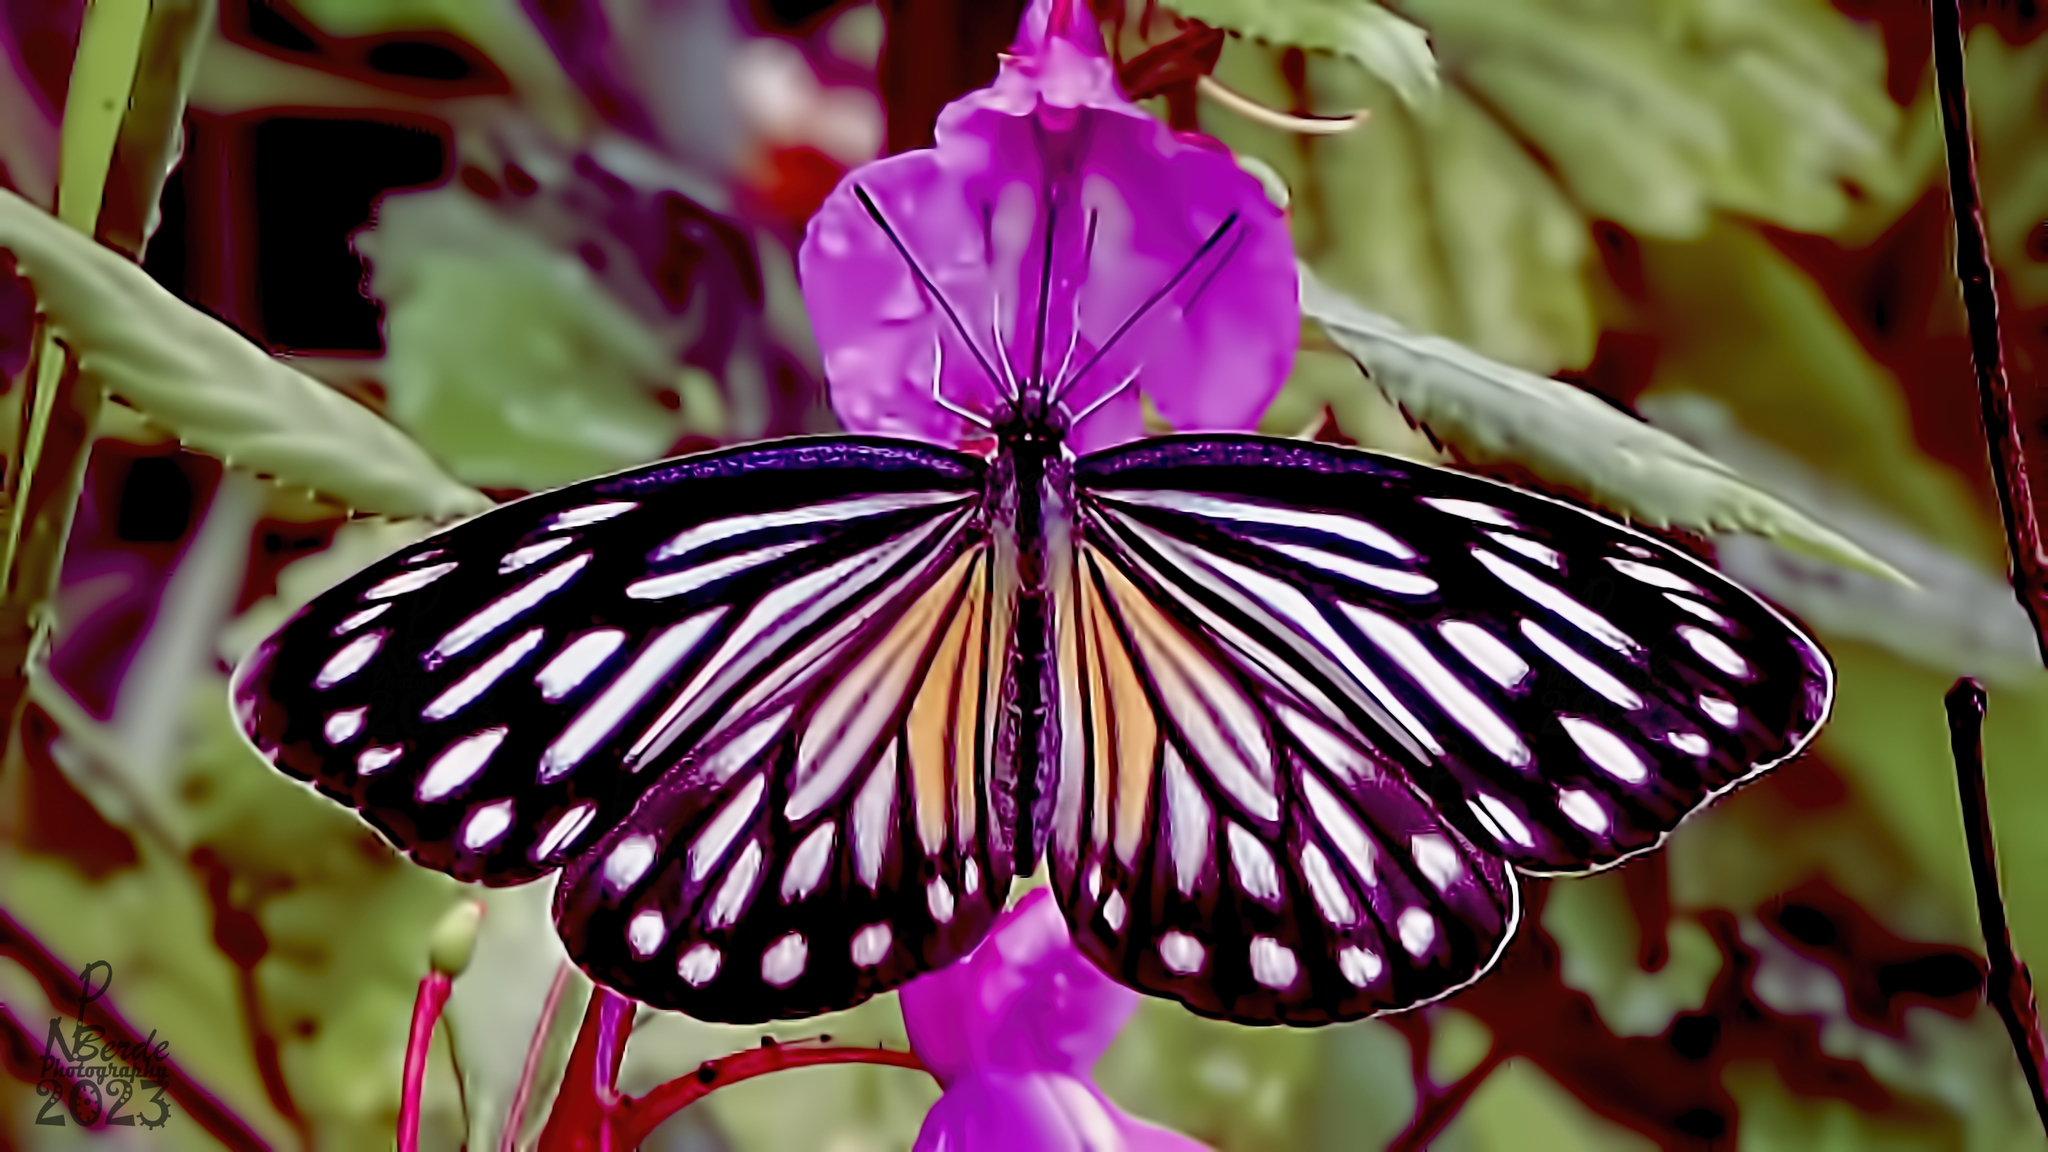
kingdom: Animalia
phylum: Arthropoda
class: Insecta
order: Lepidoptera
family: Pieridae
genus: Pareronia
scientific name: Pareronia hippia
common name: Indian wanderer
